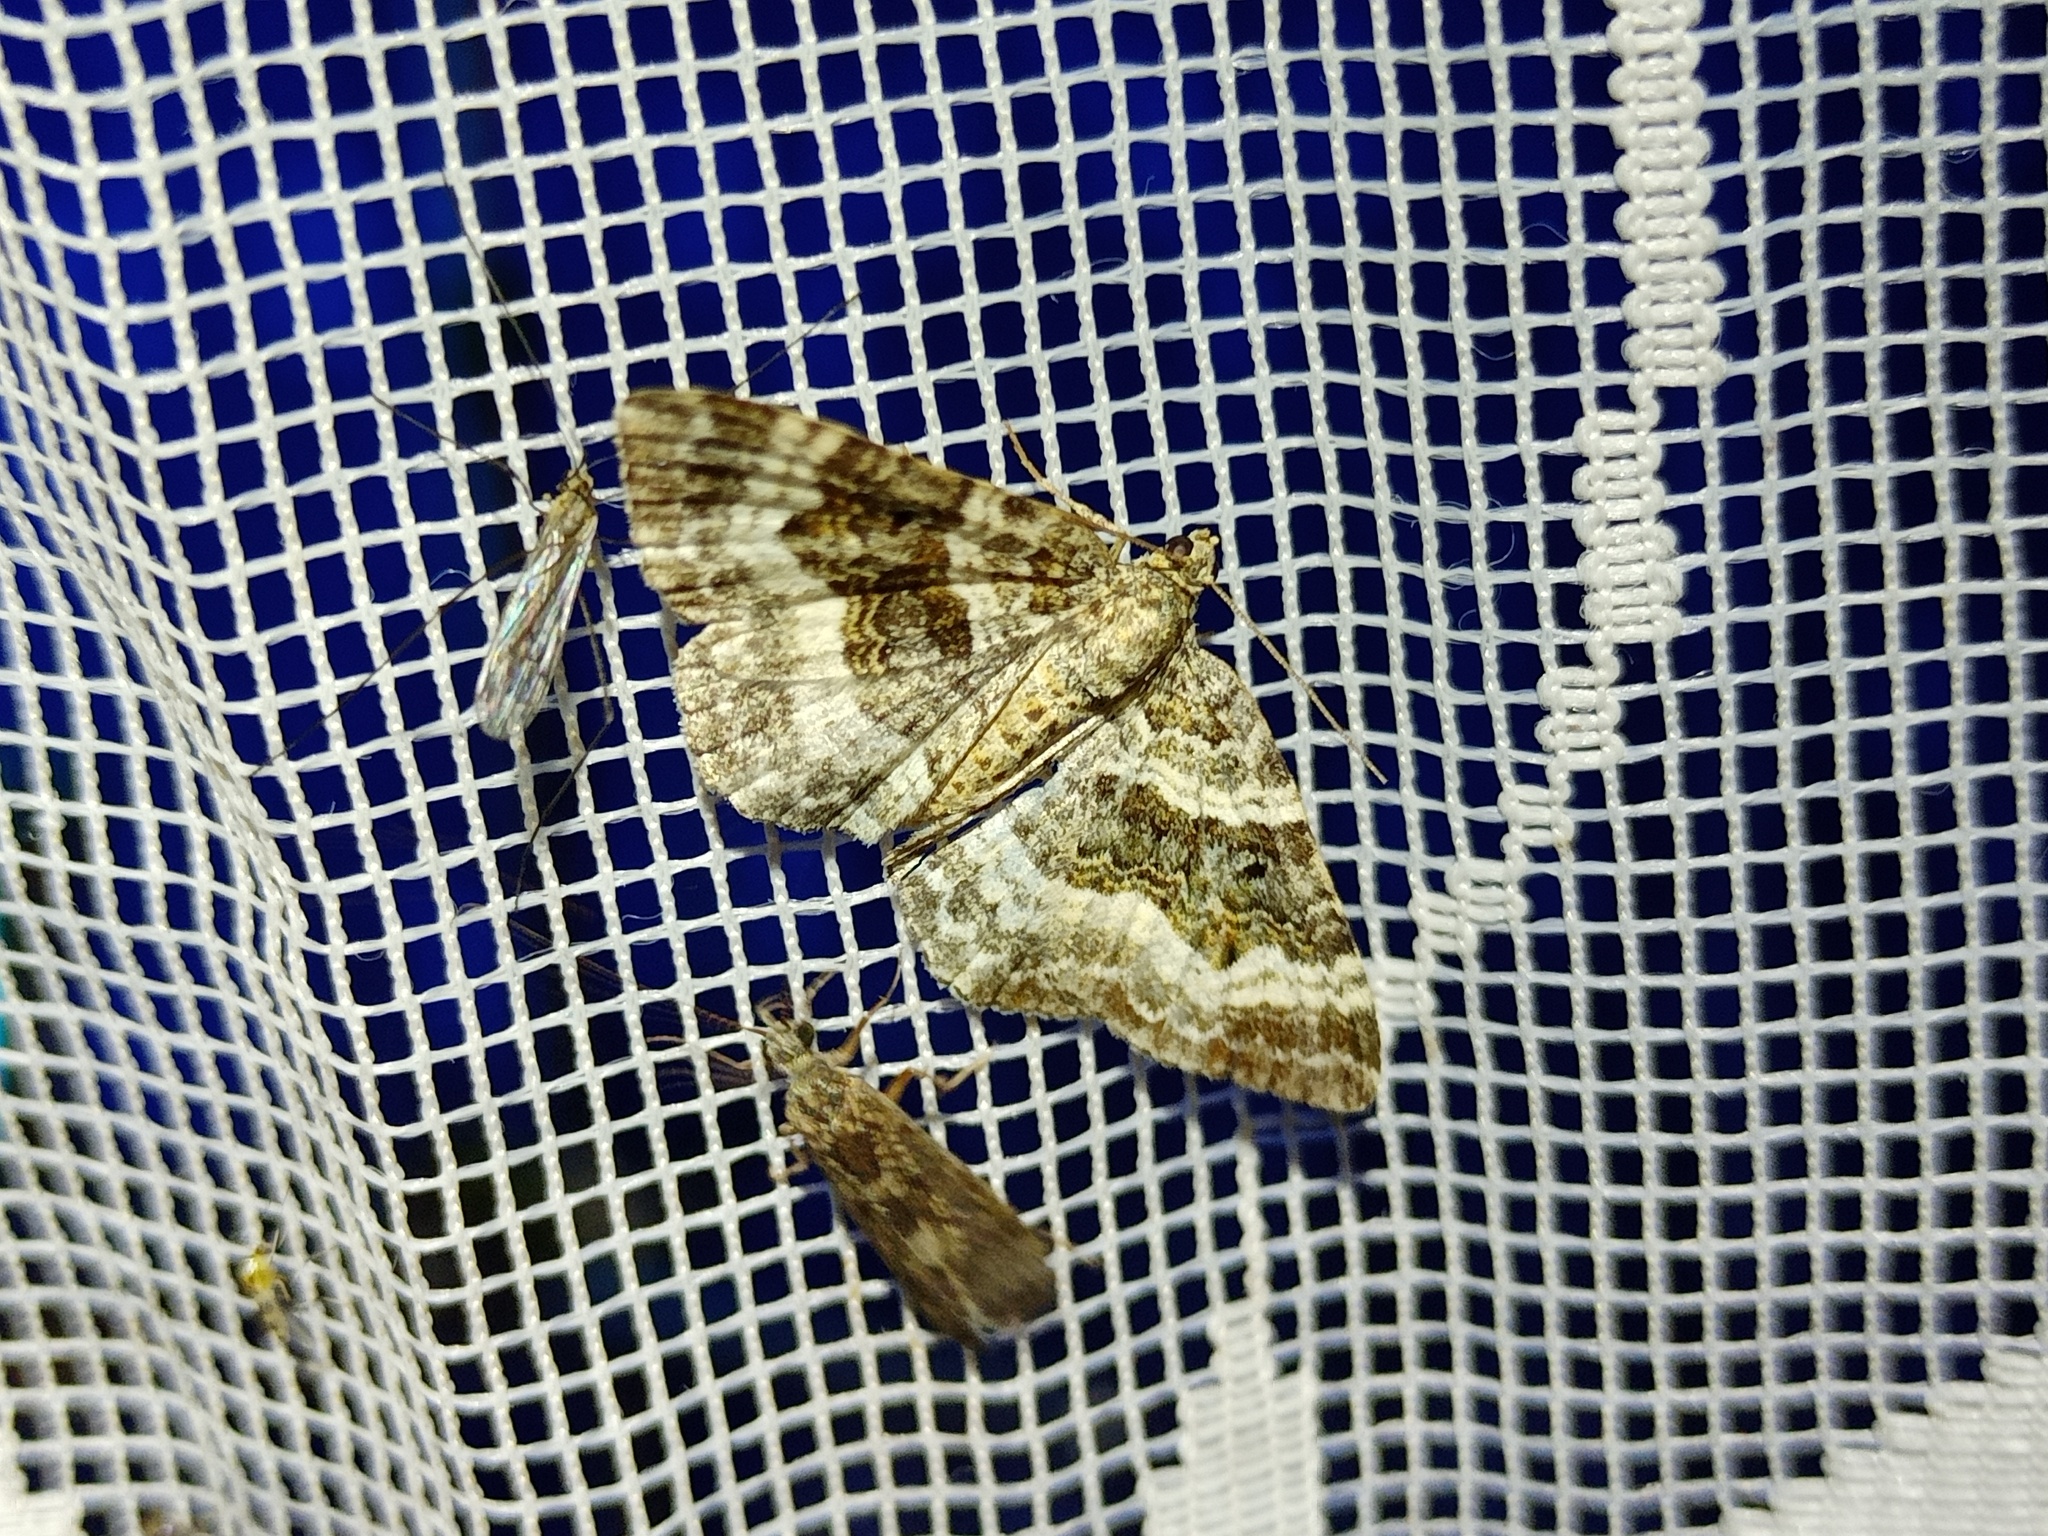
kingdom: Animalia
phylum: Arthropoda
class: Insecta
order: Lepidoptera
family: Geometridae
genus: Epirrhoe
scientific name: Epirrhoe alternata
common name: Common carpet
